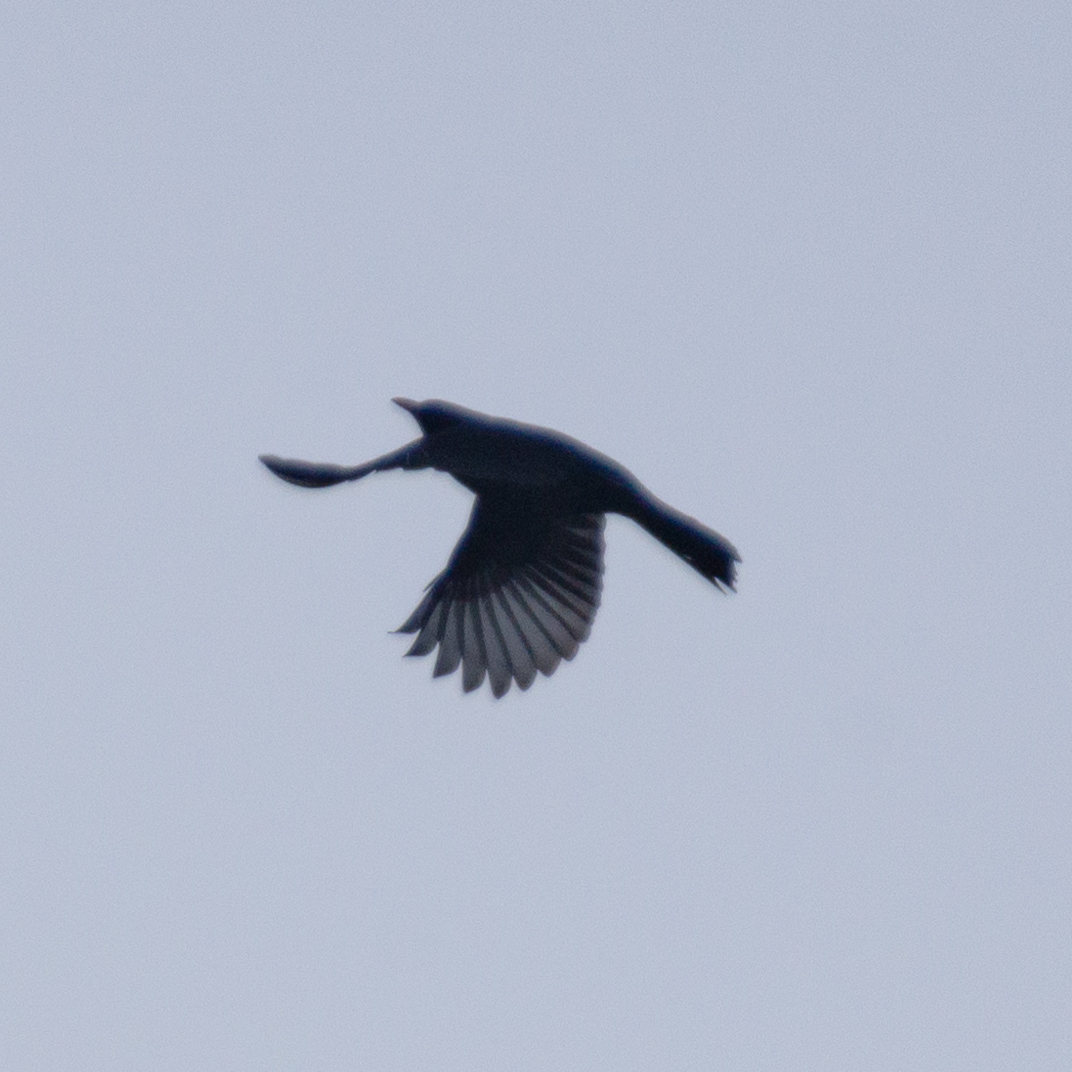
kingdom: Animalia
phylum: Chordata
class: Aves
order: Passeriformes
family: Turdidae
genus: Turdus
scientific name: Turdus merula
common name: Common blackbird
